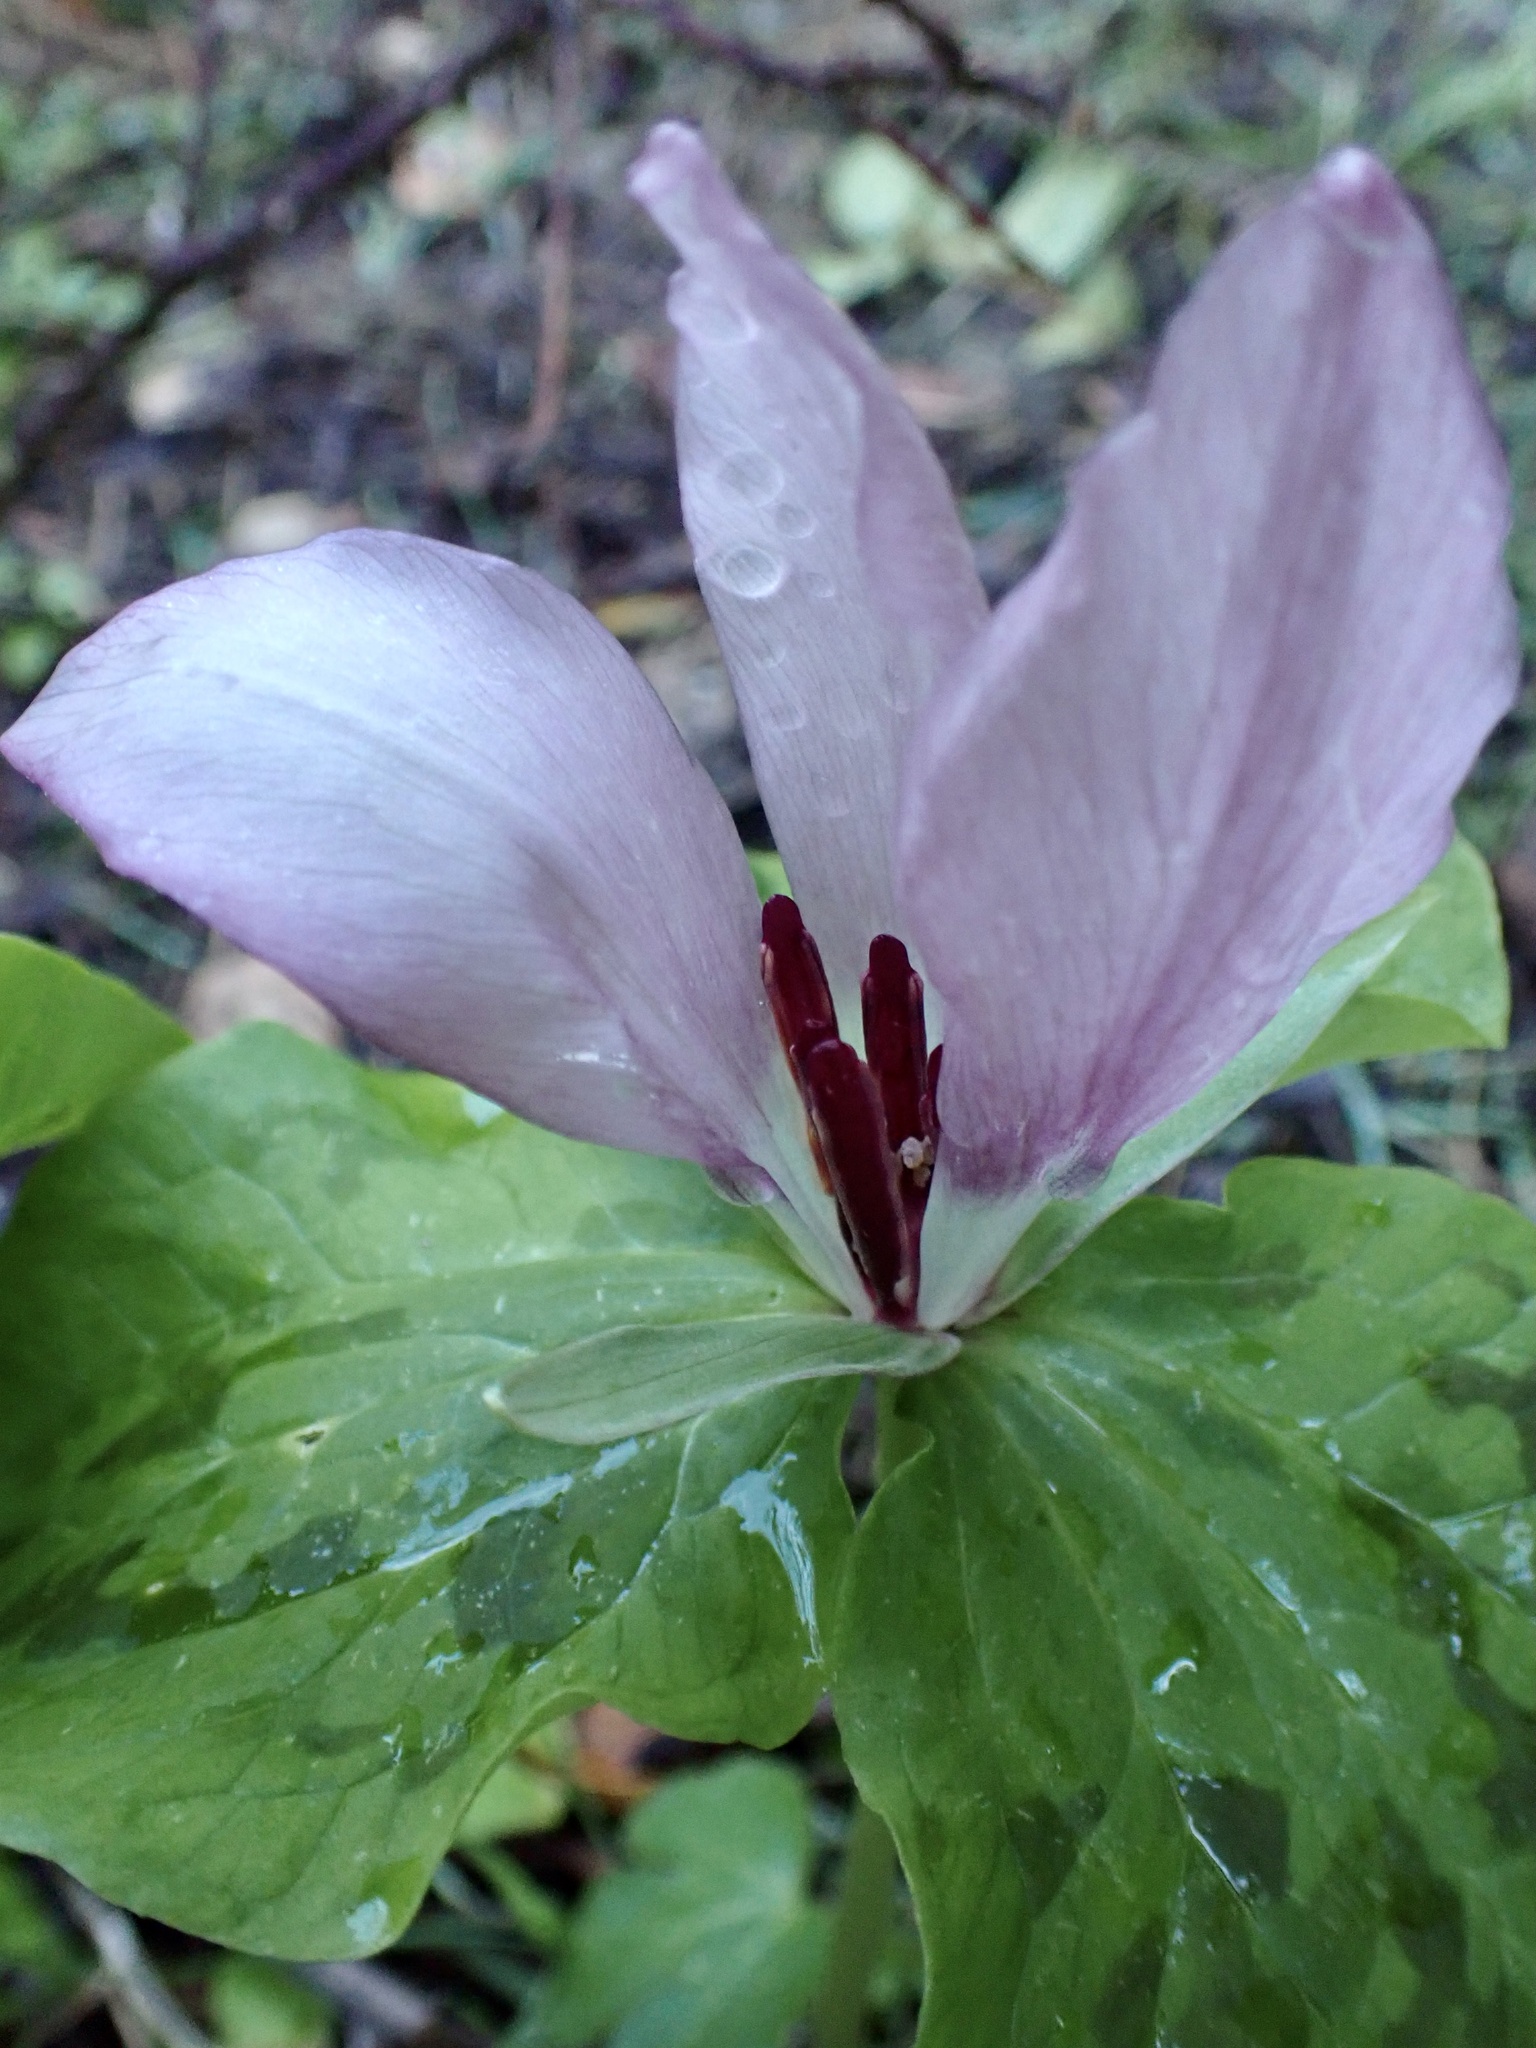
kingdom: Plantae
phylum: Tracheophyta
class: Liliopsida
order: Liliales
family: Melanthiaceae
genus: Trillium
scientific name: Trillium chloropetalum
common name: Giant trillium
